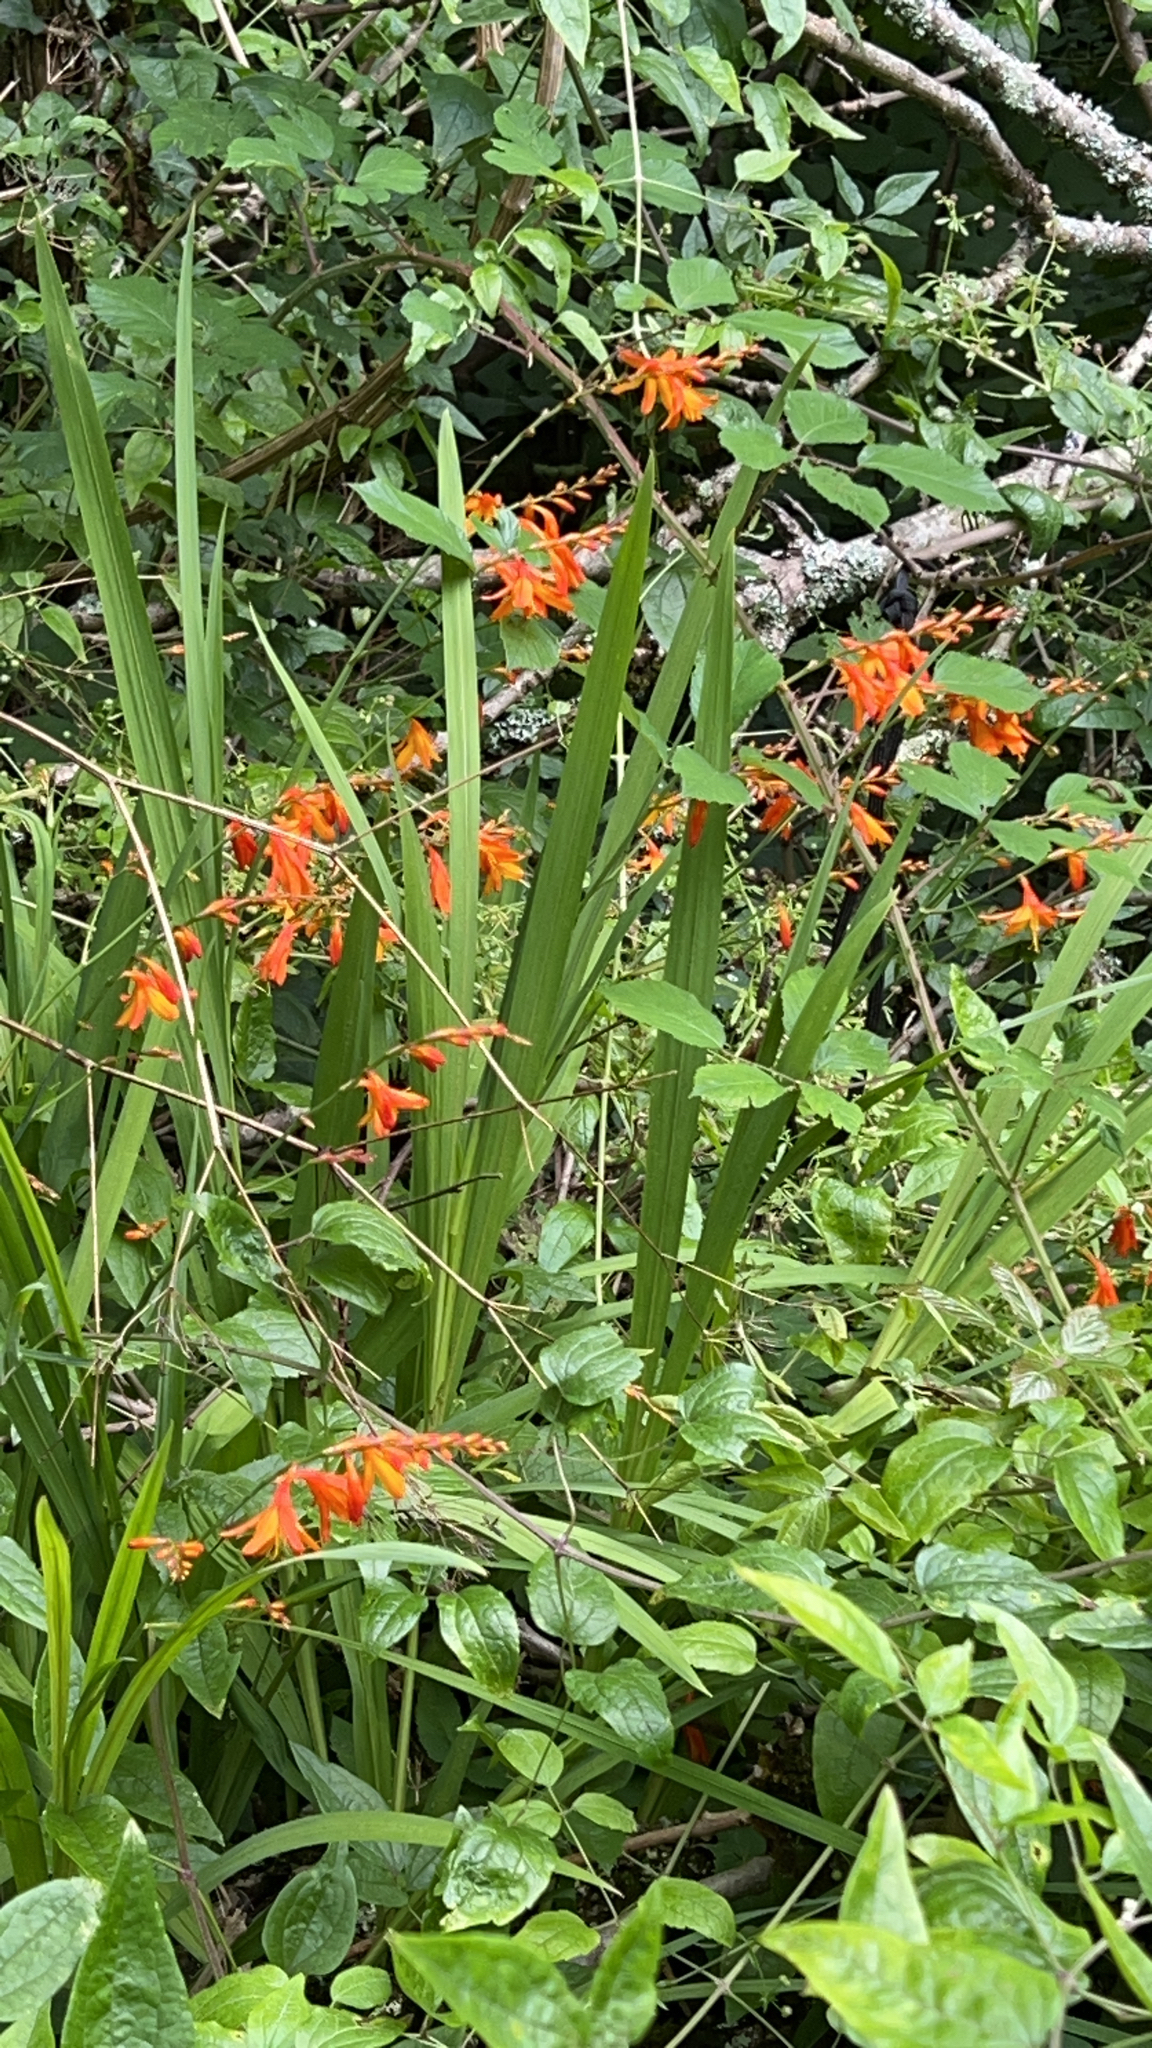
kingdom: Plantae
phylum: Tracheophyta
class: Liliopsida
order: Asparagales
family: Iridaceae
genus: Crocosmia
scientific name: Crocosmia crocosmiiflora
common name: Montbretia
